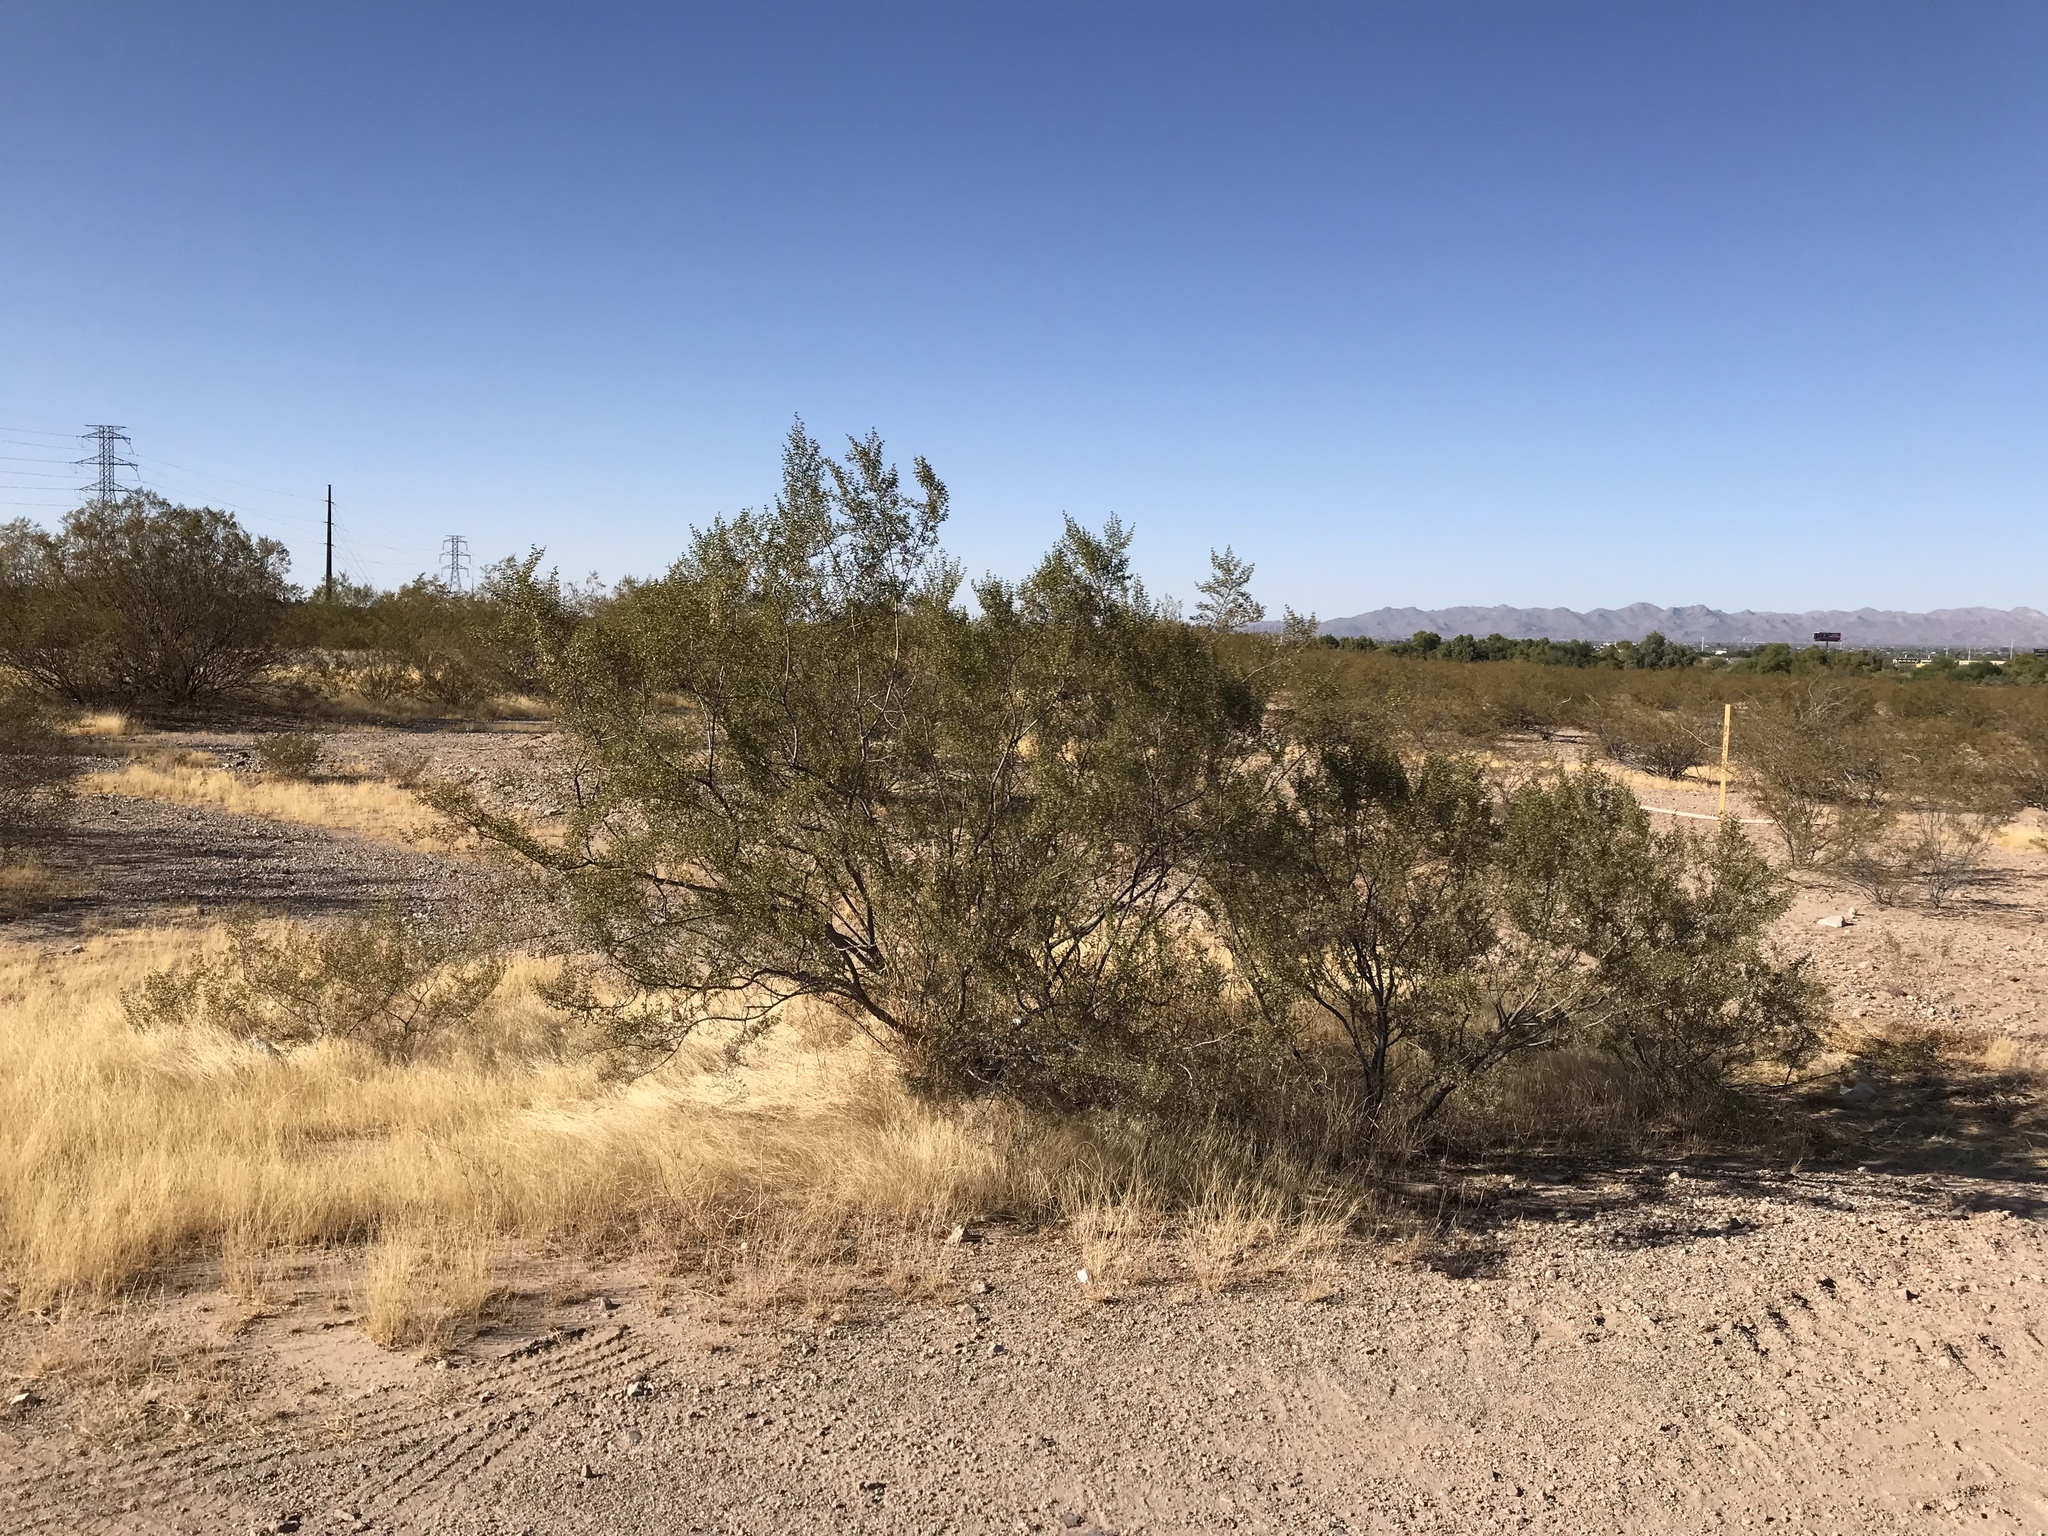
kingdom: Plantae
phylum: Tracheophyta
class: Magnoliopsida
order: Zygophyllales
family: Zygophyllaceae
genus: Larrea
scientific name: Larrea tridentata
